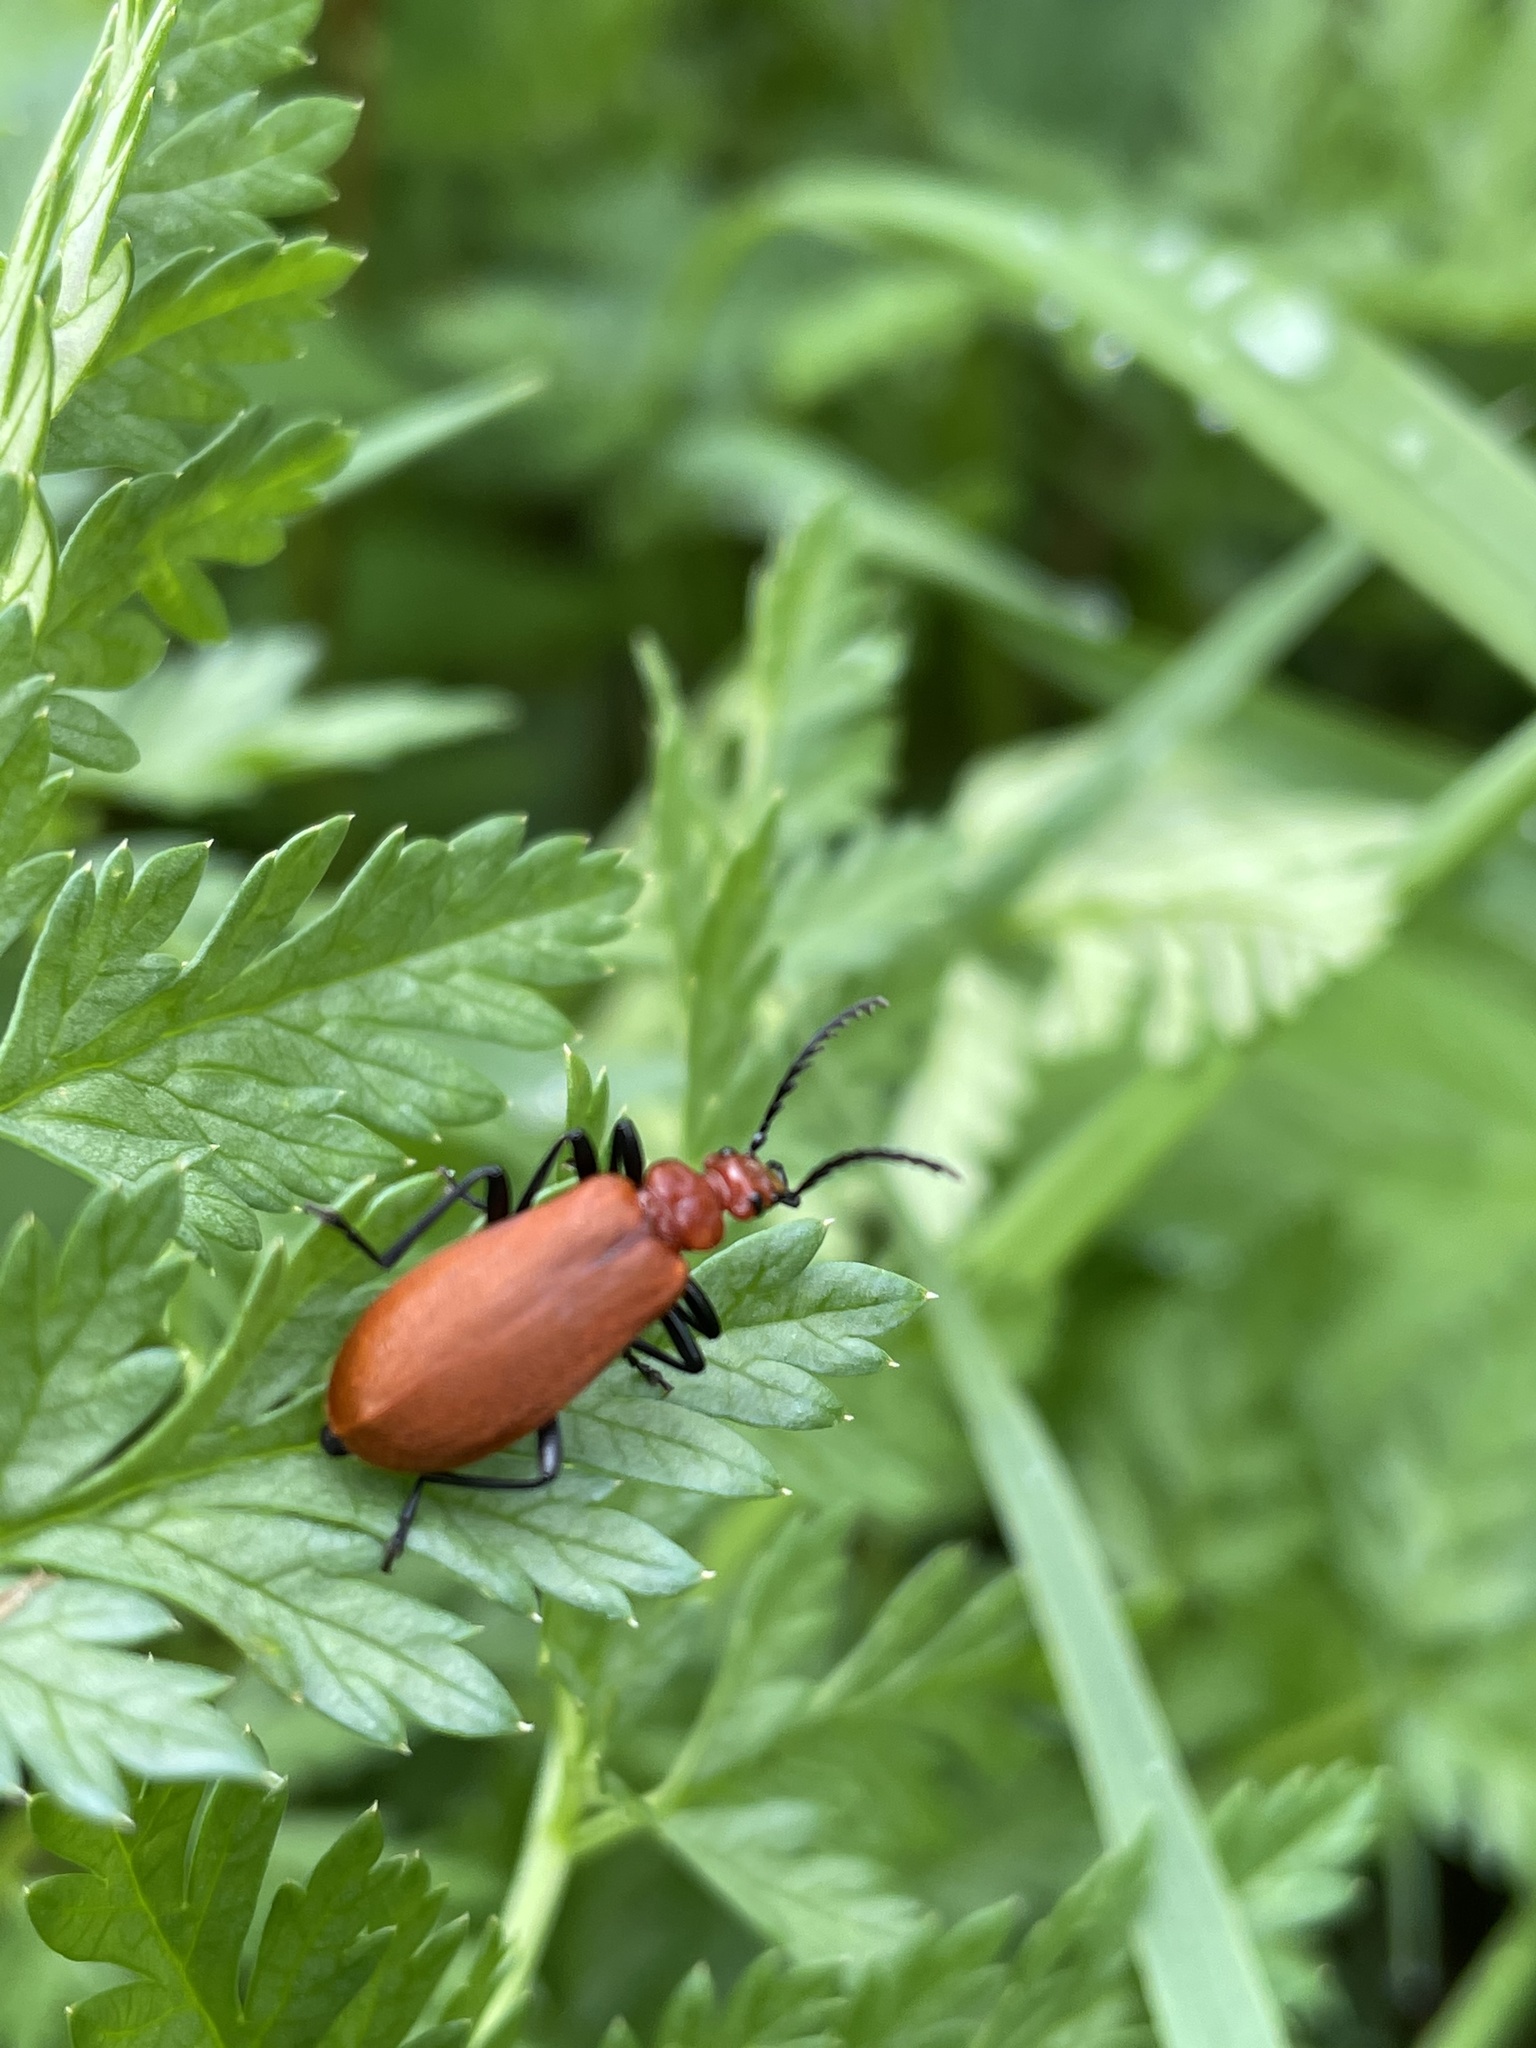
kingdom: Animalia
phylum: Arthropoda
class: Insecta
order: Coleoptera
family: Pyrochroidae
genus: Pyrochroa
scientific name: Pyrochroa serraticornis
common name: Red-headed cardinal beetle
